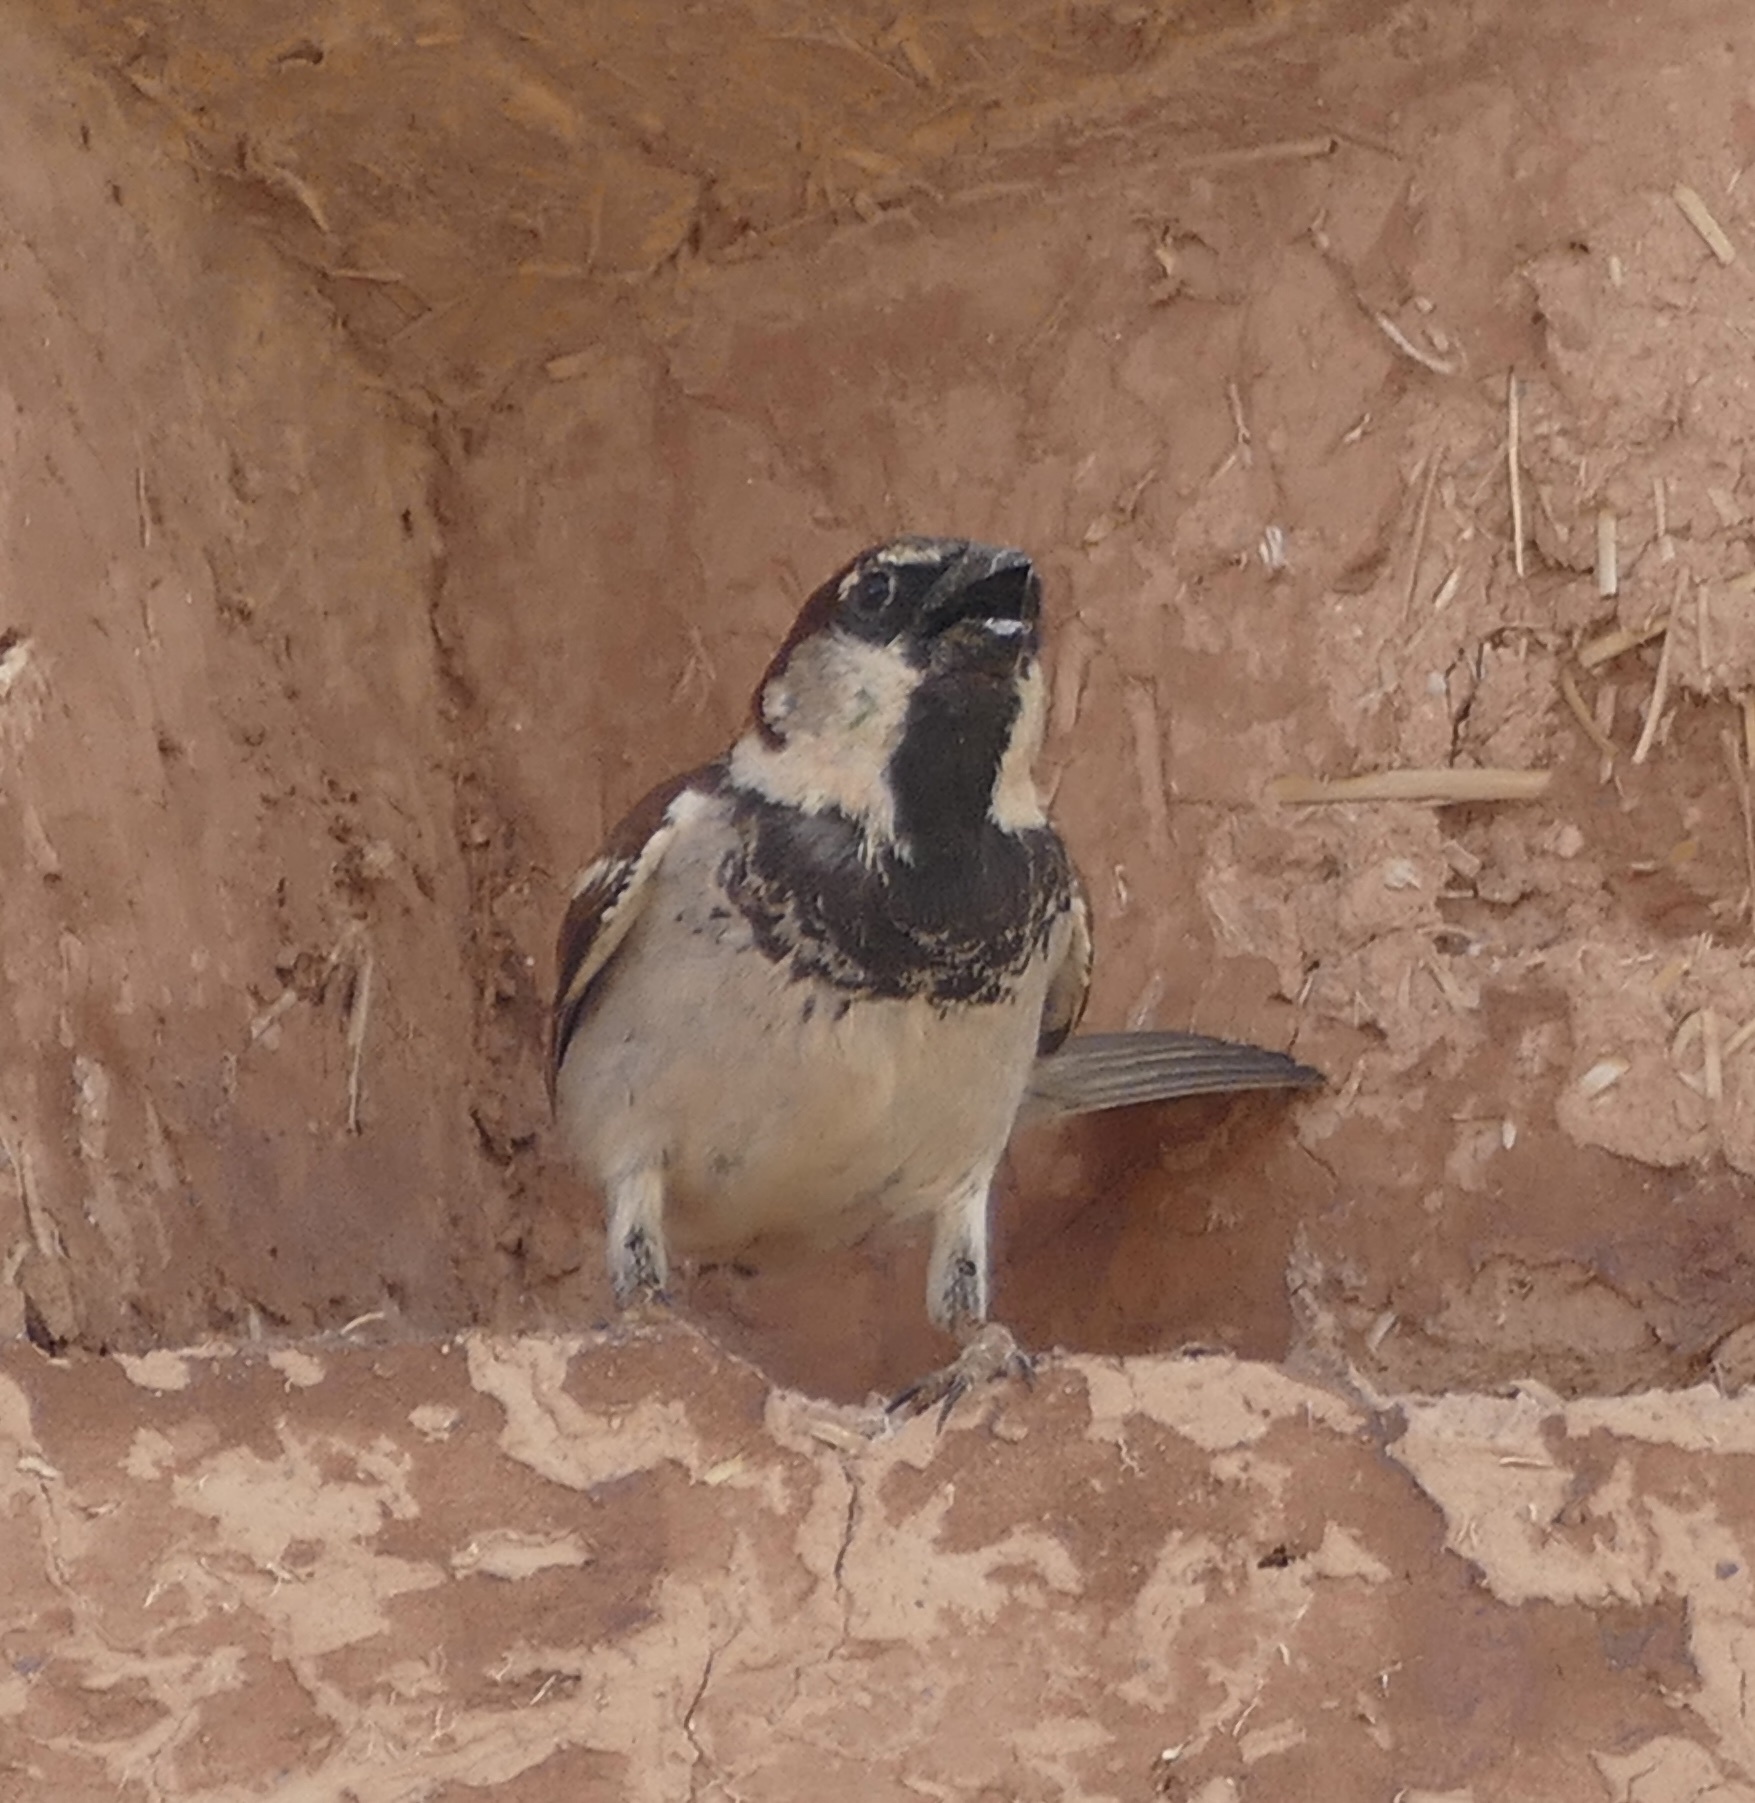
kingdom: Animalia
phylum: Chordata
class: Aves
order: Passeriformes
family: Passeridae
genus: Passer
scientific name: Passer domesticus
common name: House sparrow
